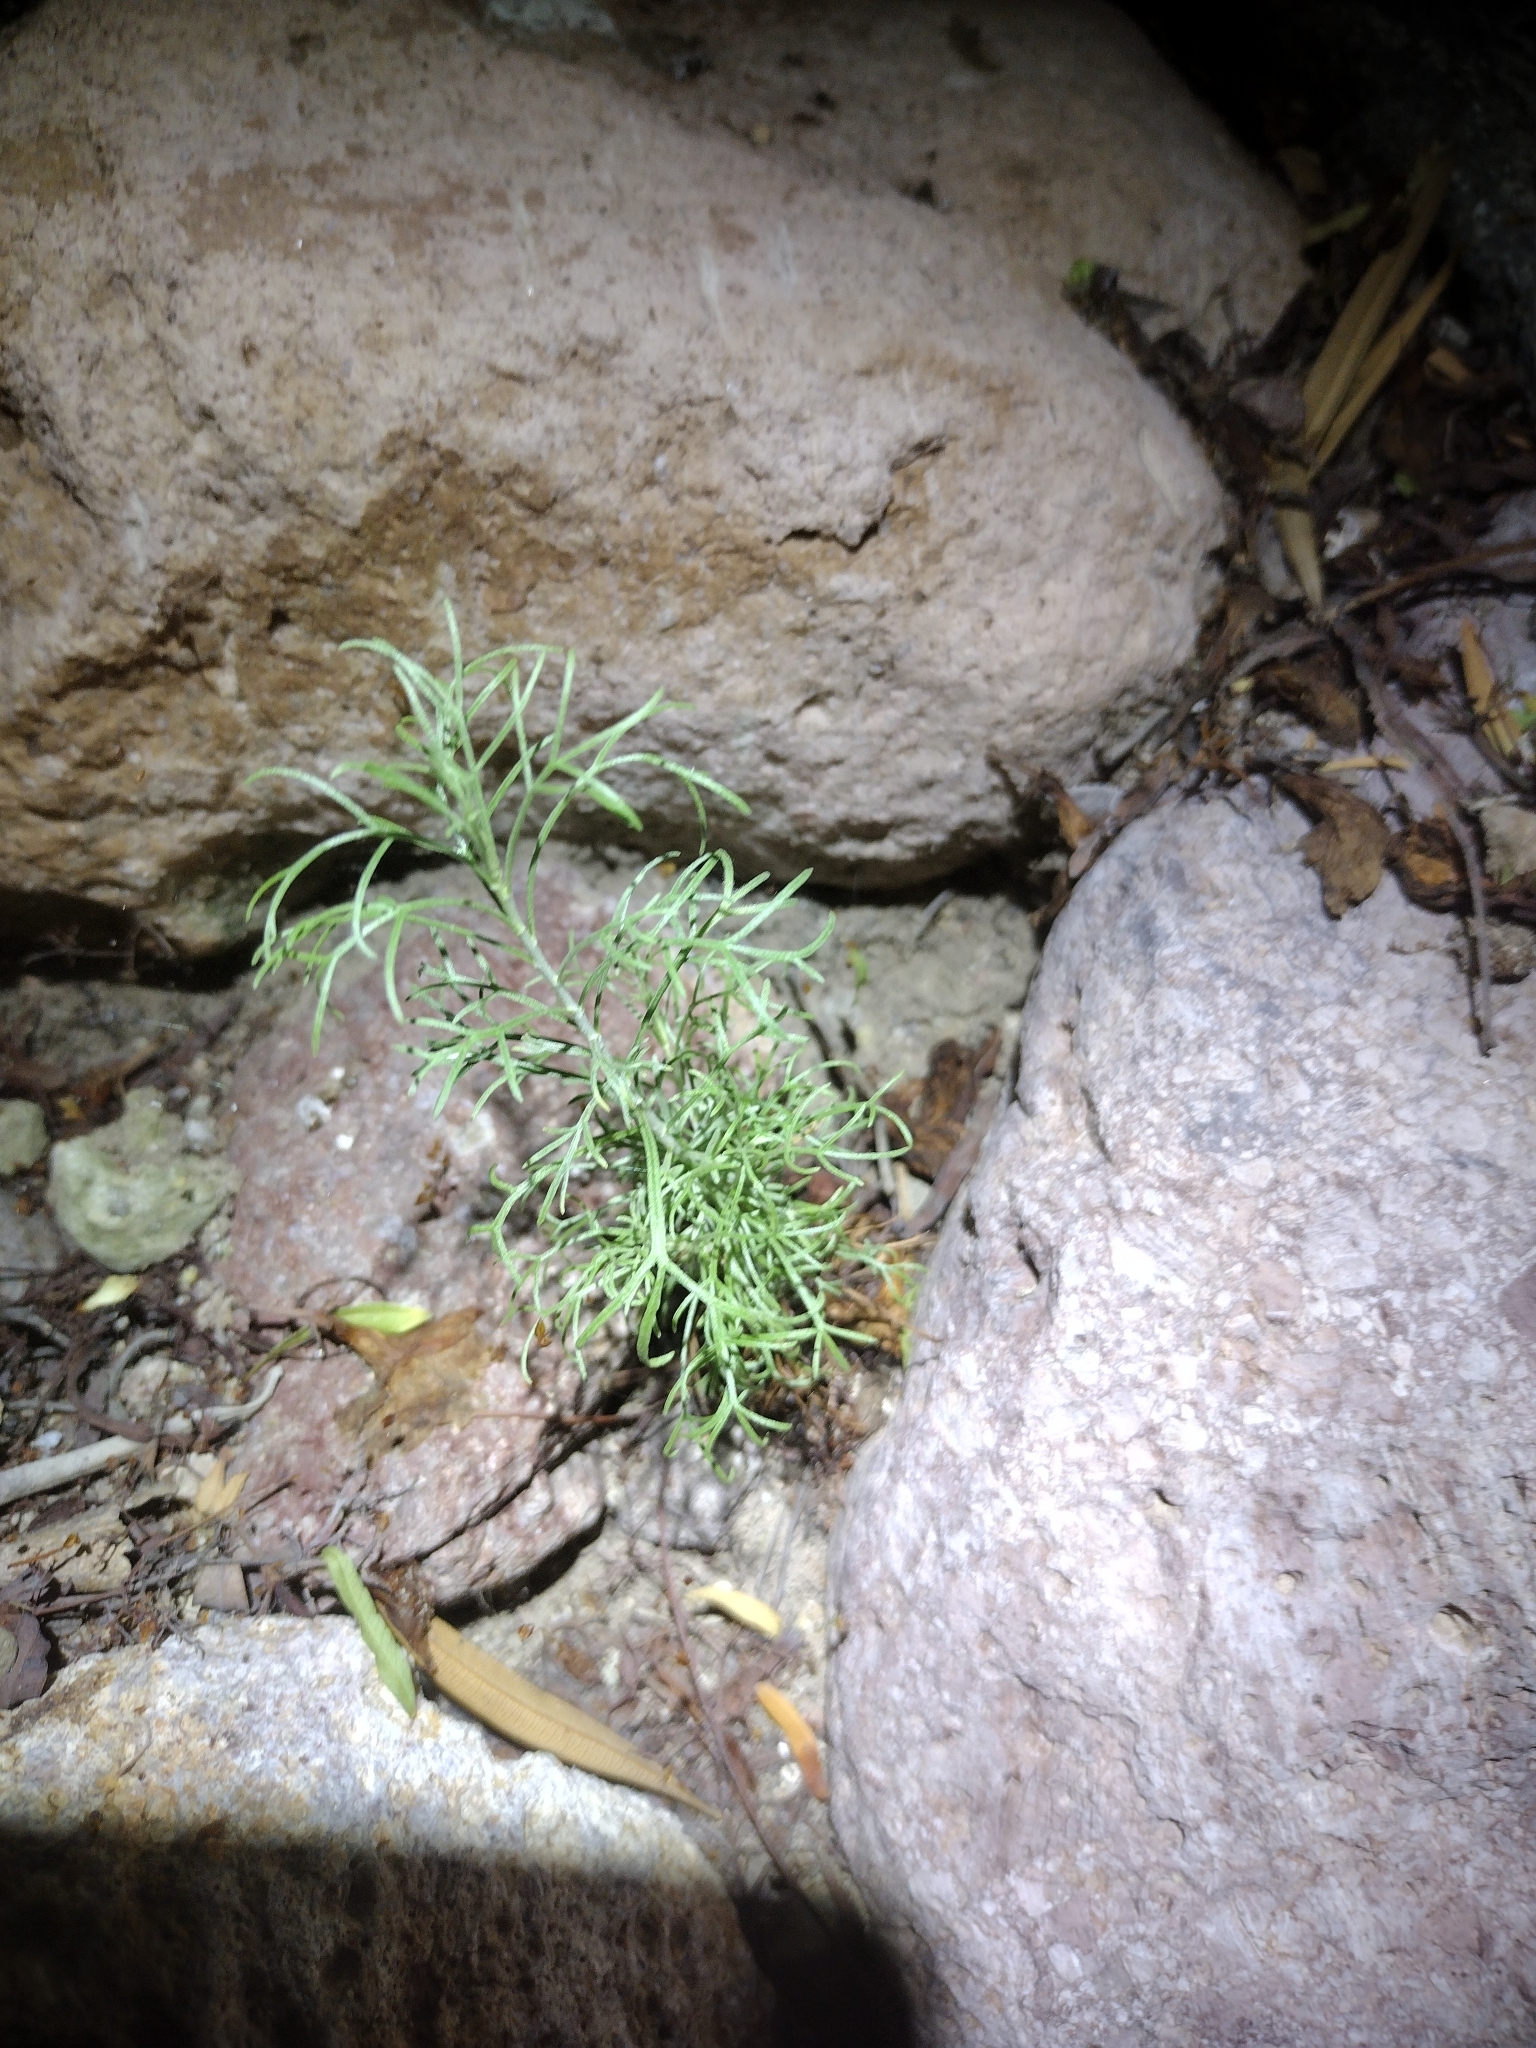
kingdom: Plantae
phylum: Tracheophyta
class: Magnoliopsida
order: Asterales
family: Asteraceae
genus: Artemisia
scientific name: Artemisia californica
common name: California sagebrush
